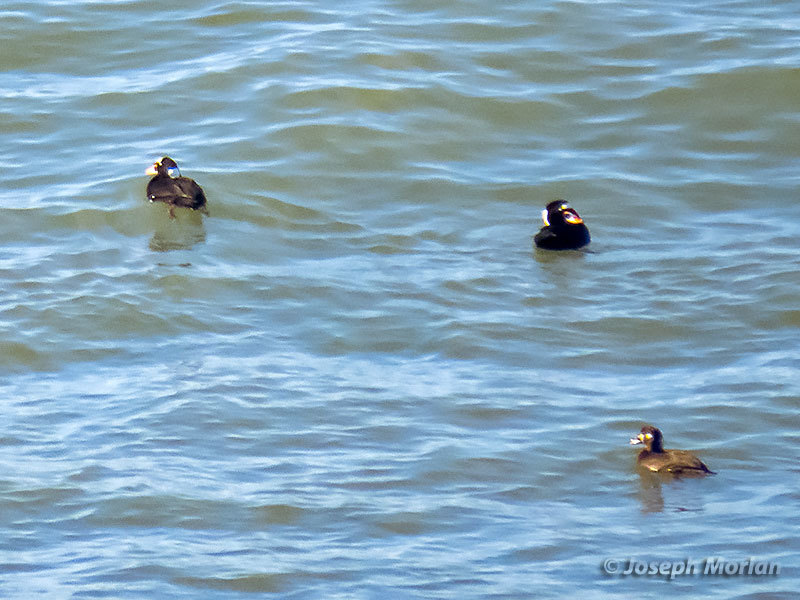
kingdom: Animalia
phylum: Chordata
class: Aves
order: Anseriformes
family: Anatidae
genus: Melanitta
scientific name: Melanitta perspicillata
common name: Surf scoter
